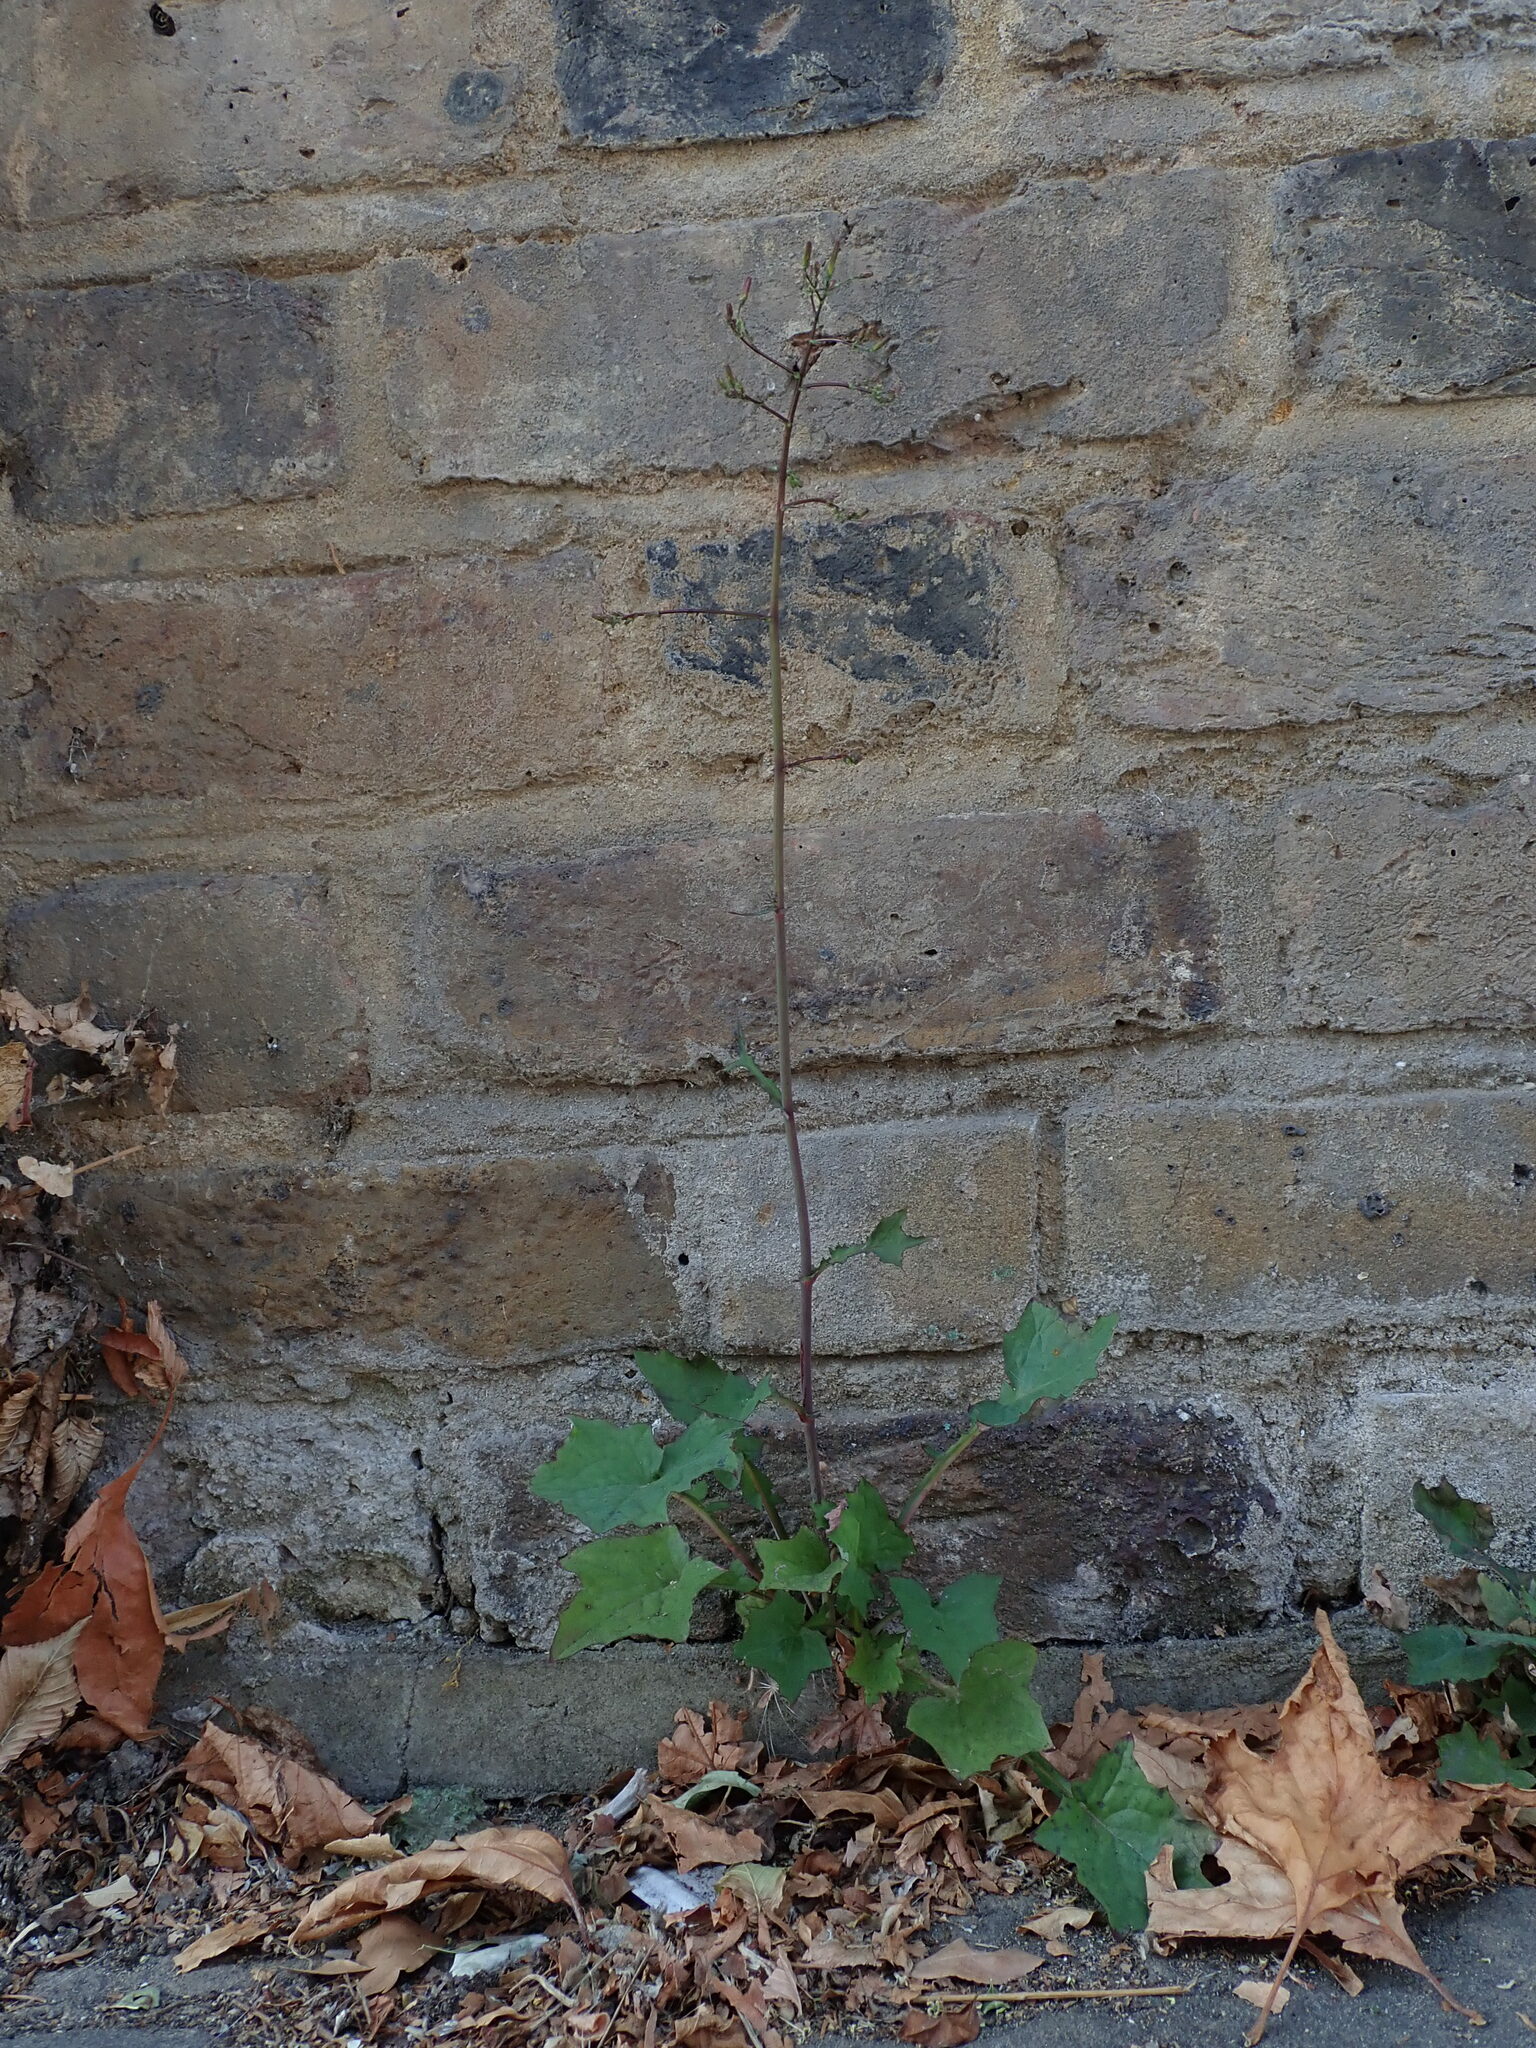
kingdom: Plantae
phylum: Tracheophyta
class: Magnoliopsida
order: Asterales
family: Asteraceae
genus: Mycelis
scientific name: Mycelis muralis
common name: Wall lettuce
